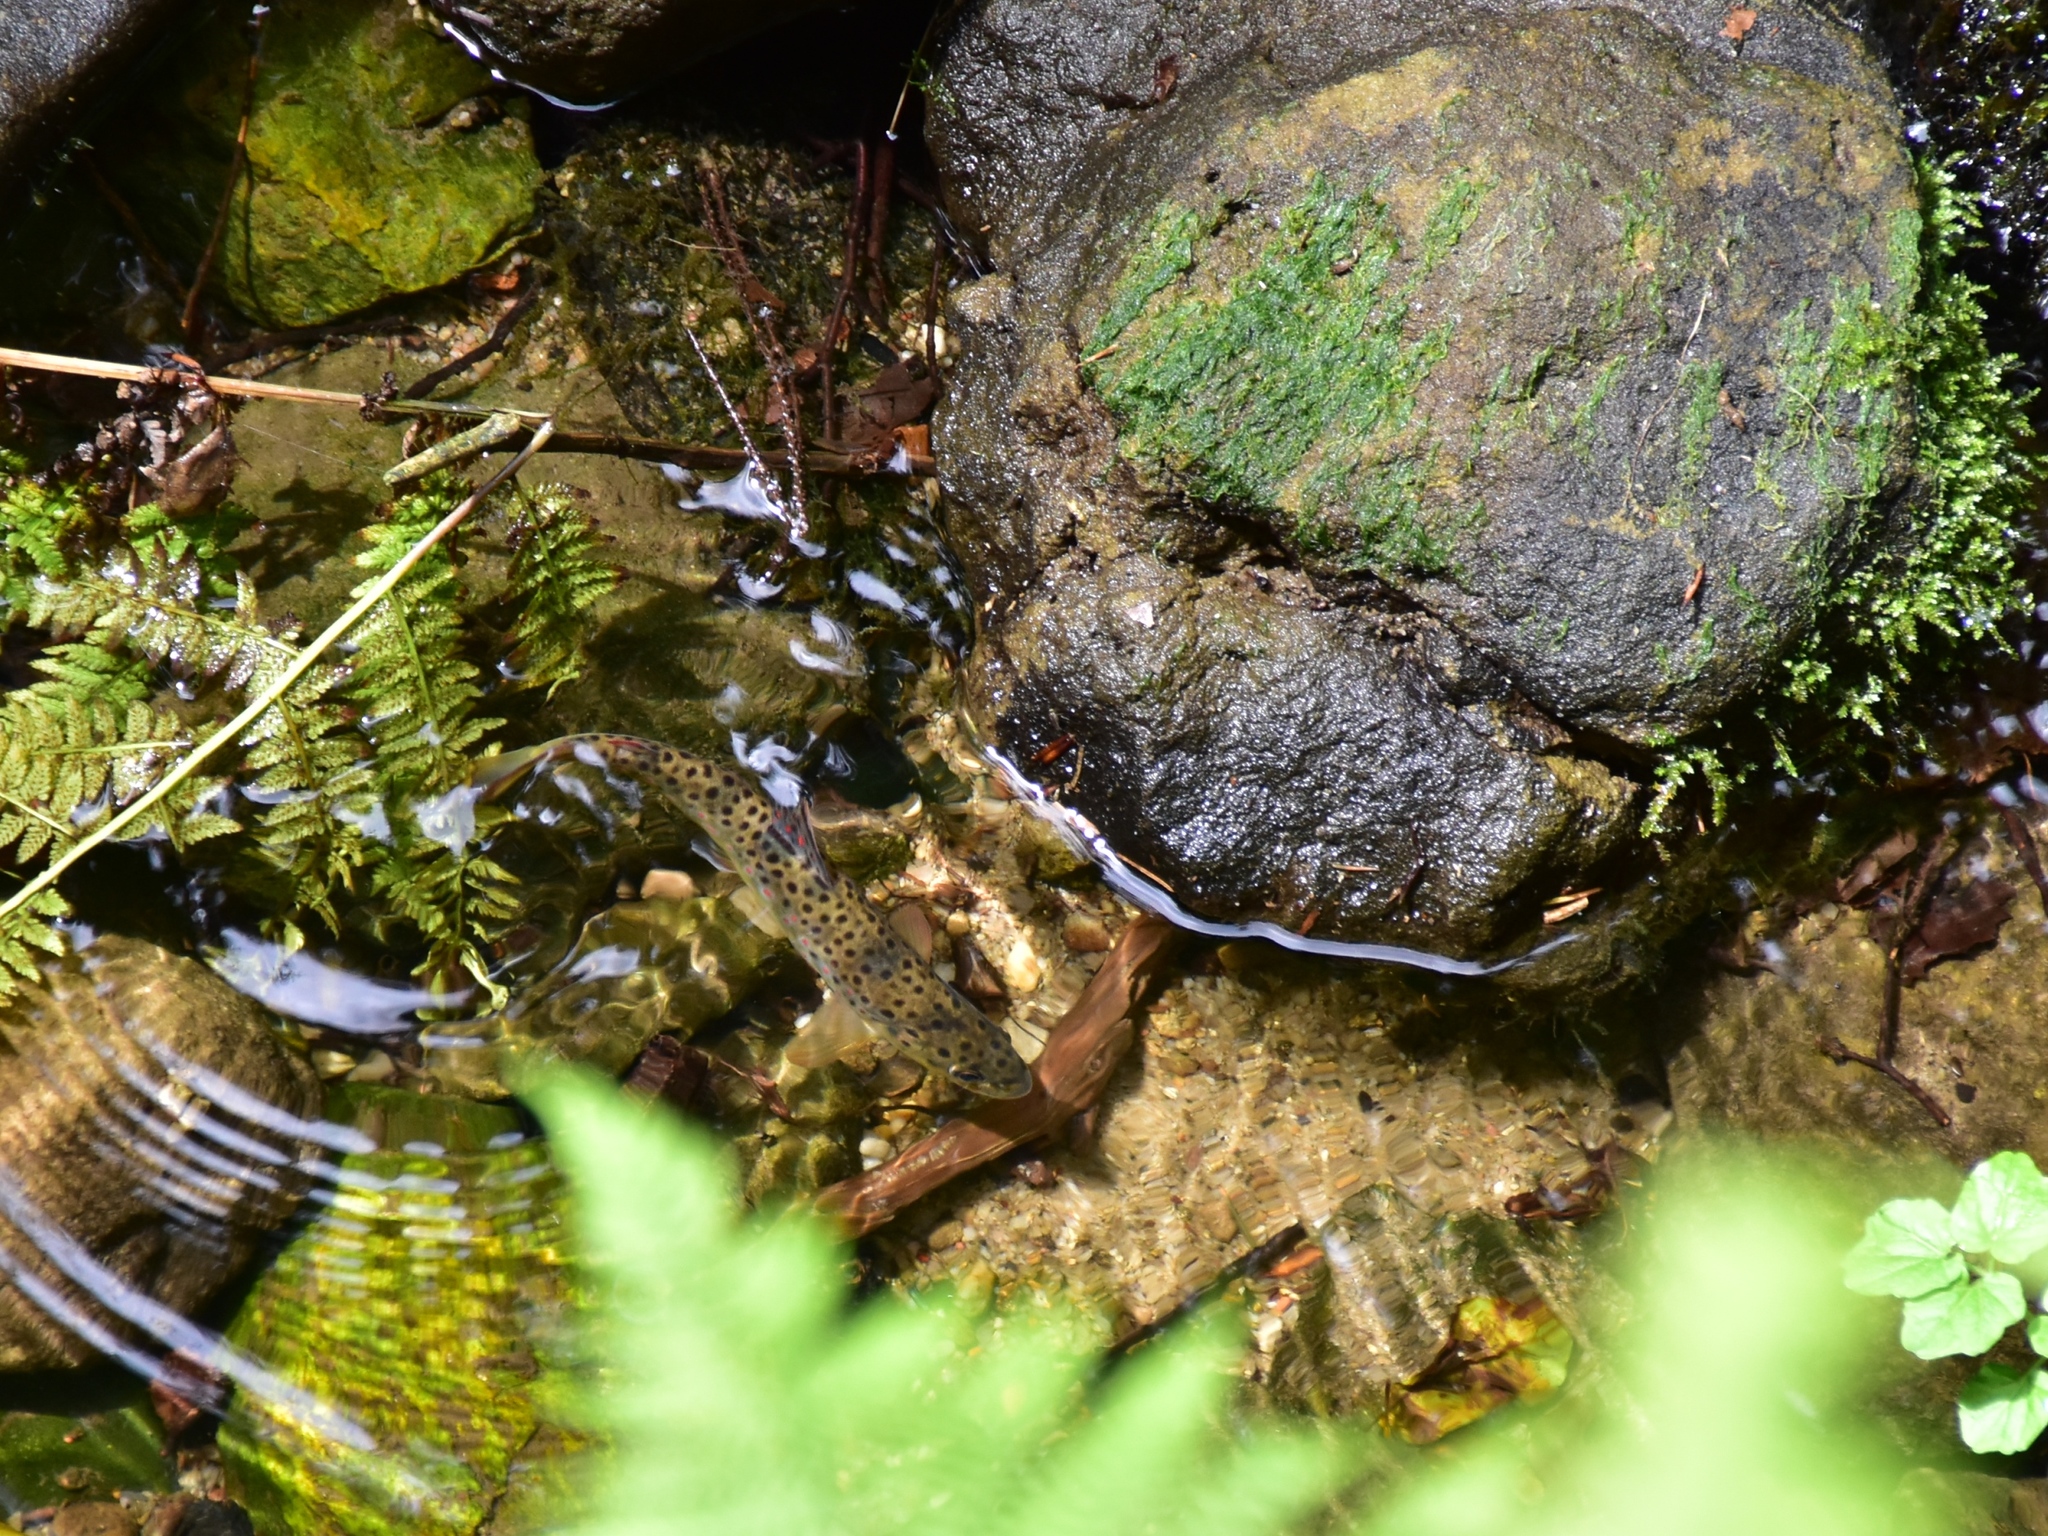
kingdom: Animalia
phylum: Chordata
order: Salmoniformes
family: Salmonidae
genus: Salmo
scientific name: Salmo trutta
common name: Brown trout
